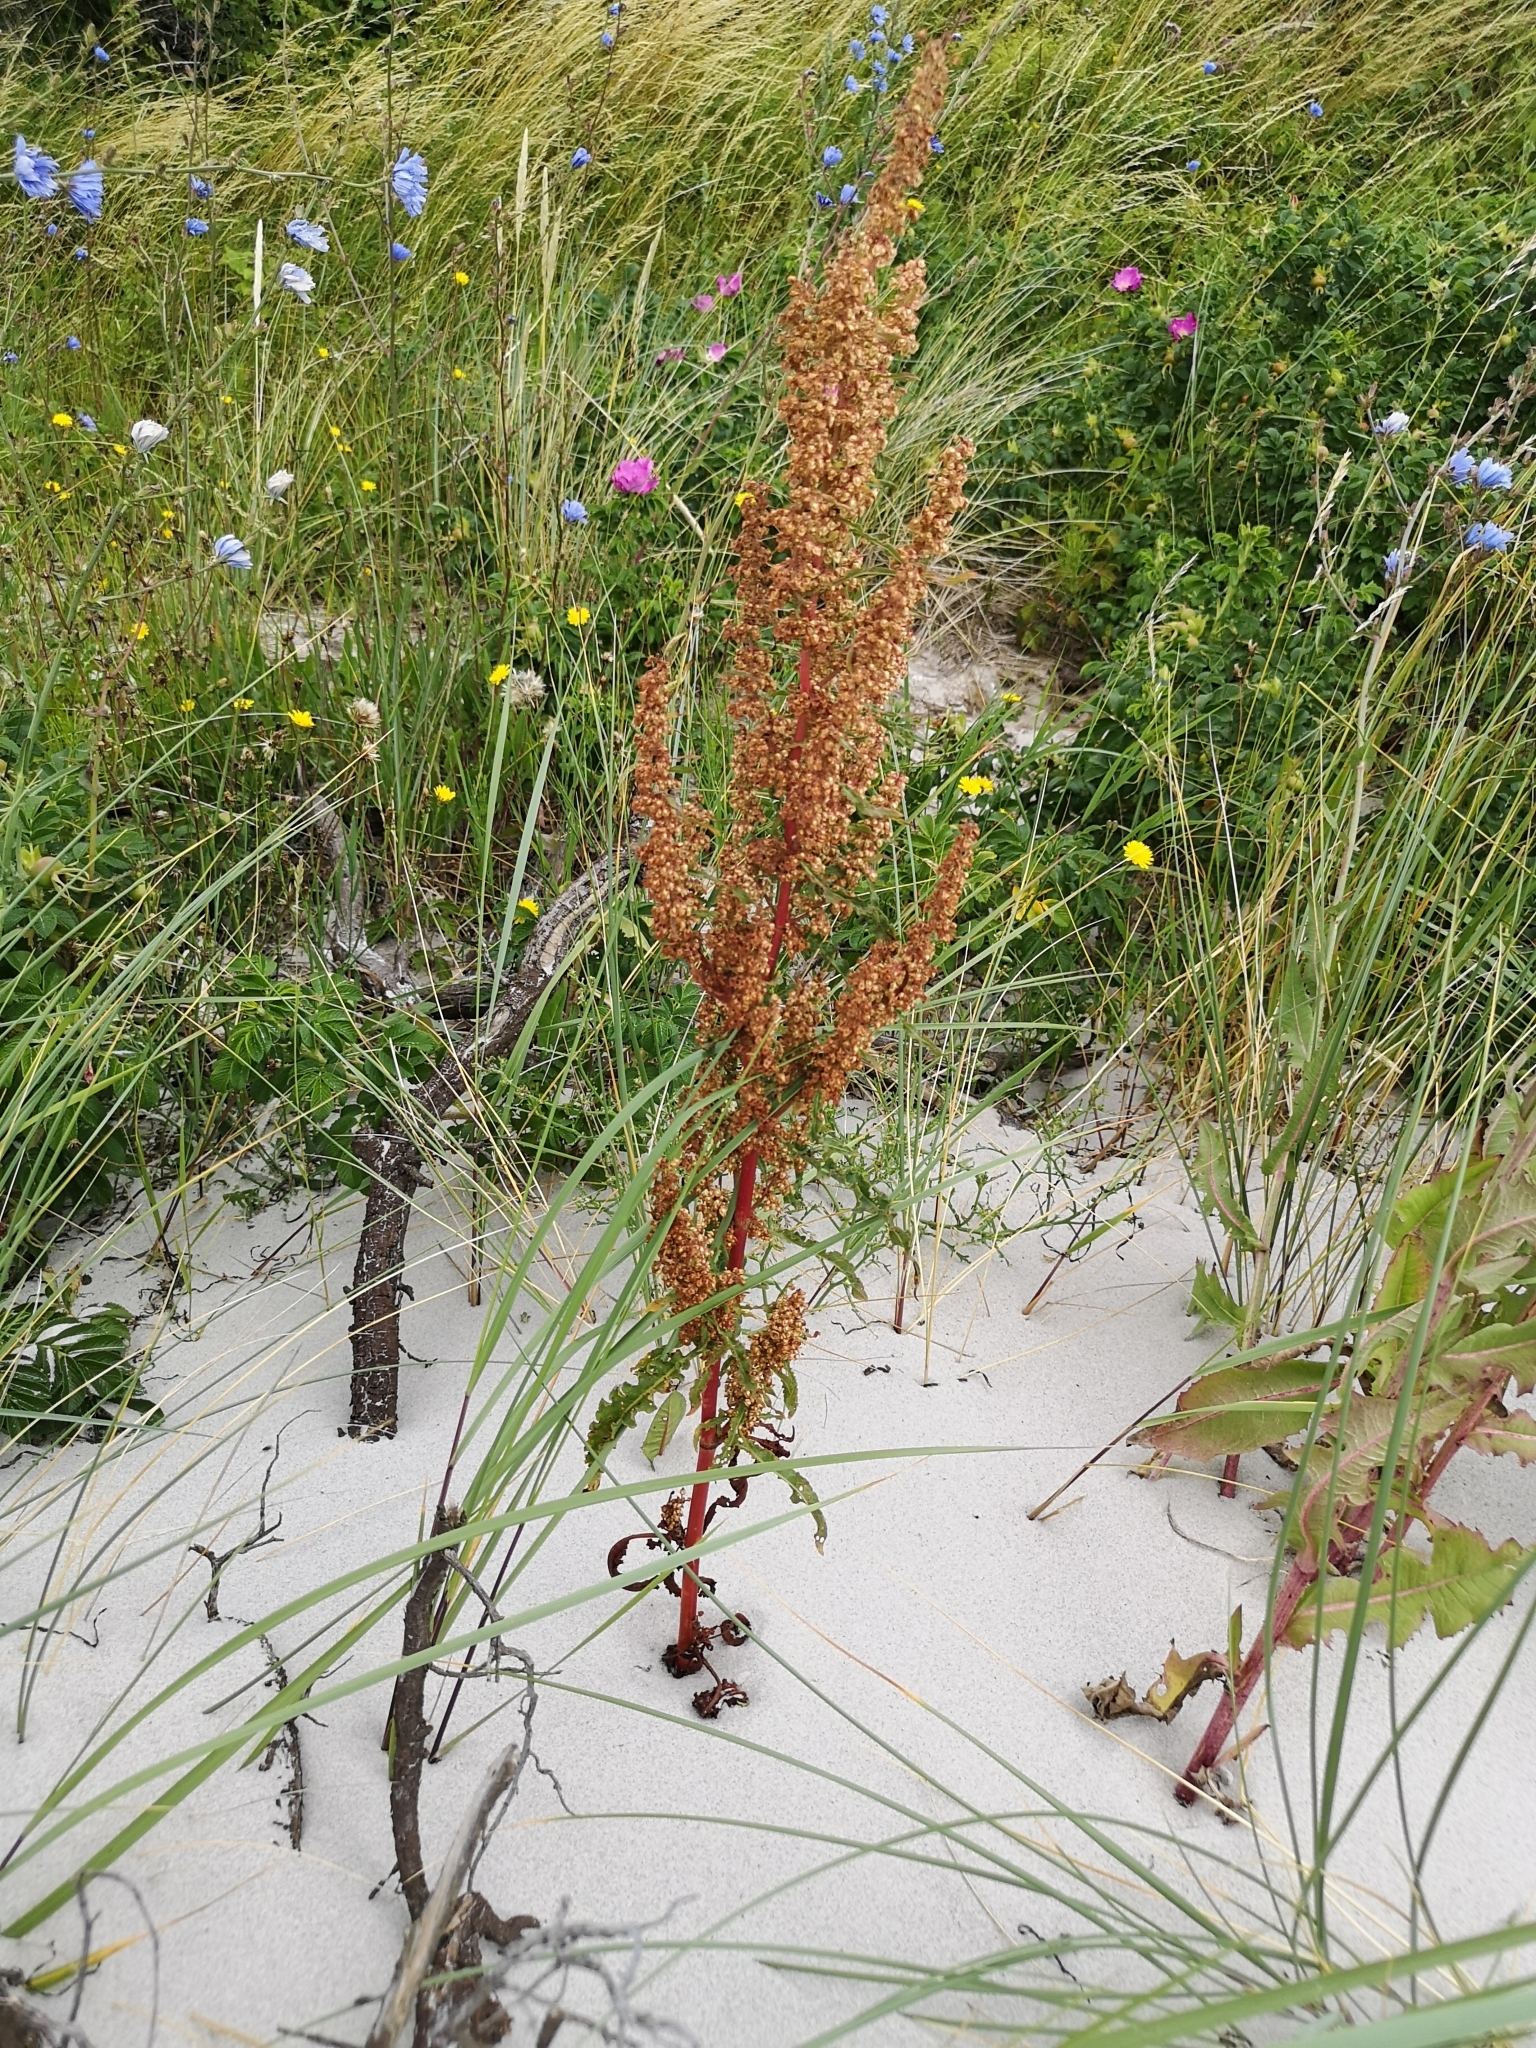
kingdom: Plantae
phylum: Tracheophyta
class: Magnoliopsida
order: Caryophyllales
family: Polygonaceae
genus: Rumex
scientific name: Rumex crispus
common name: Curled dock
